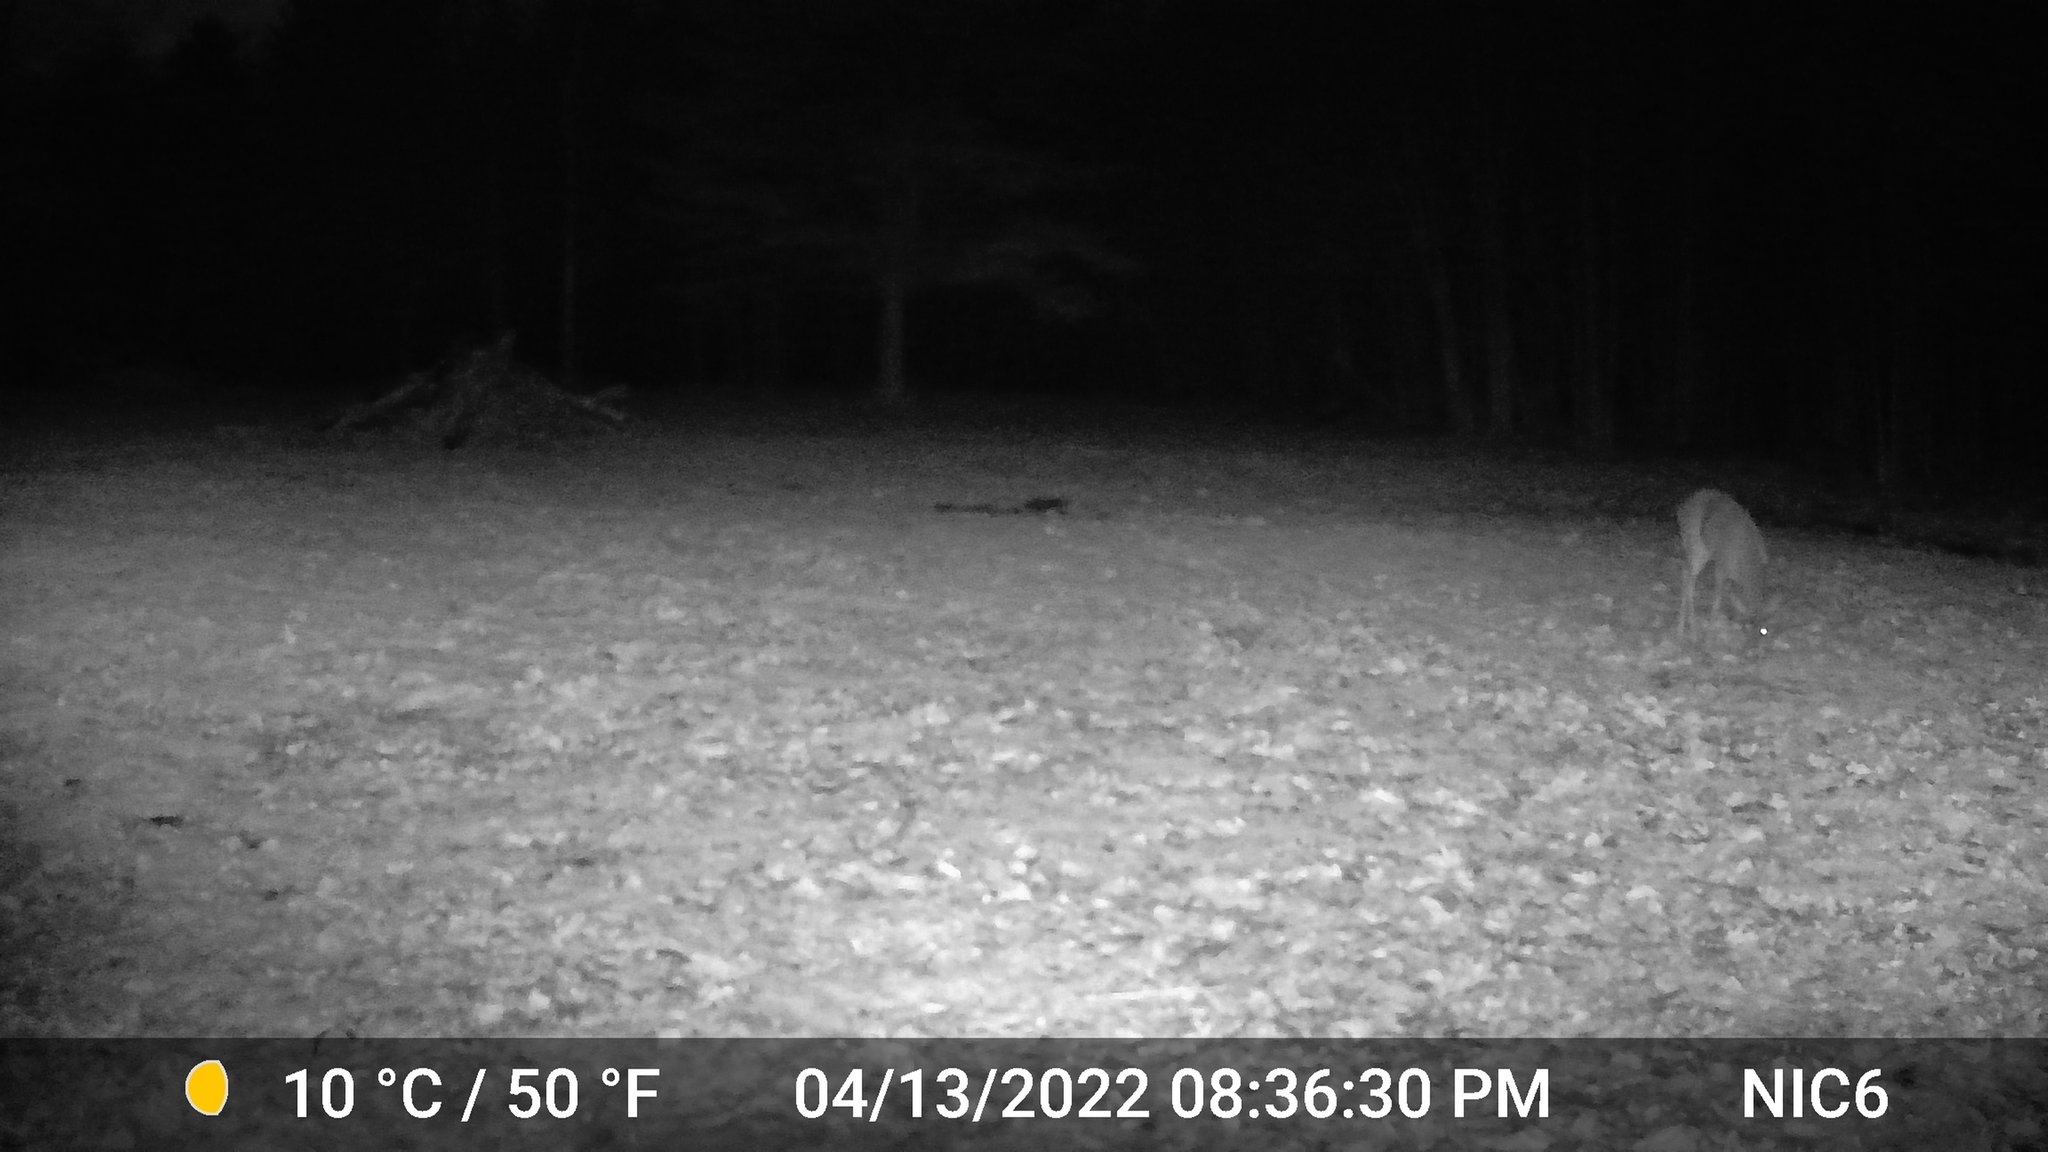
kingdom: Animalia
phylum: Chordata
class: Mammalia
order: Artiodactyla
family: Cervidae
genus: Odocoileus
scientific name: Odocoileus virginianus
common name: White-tailed deer
